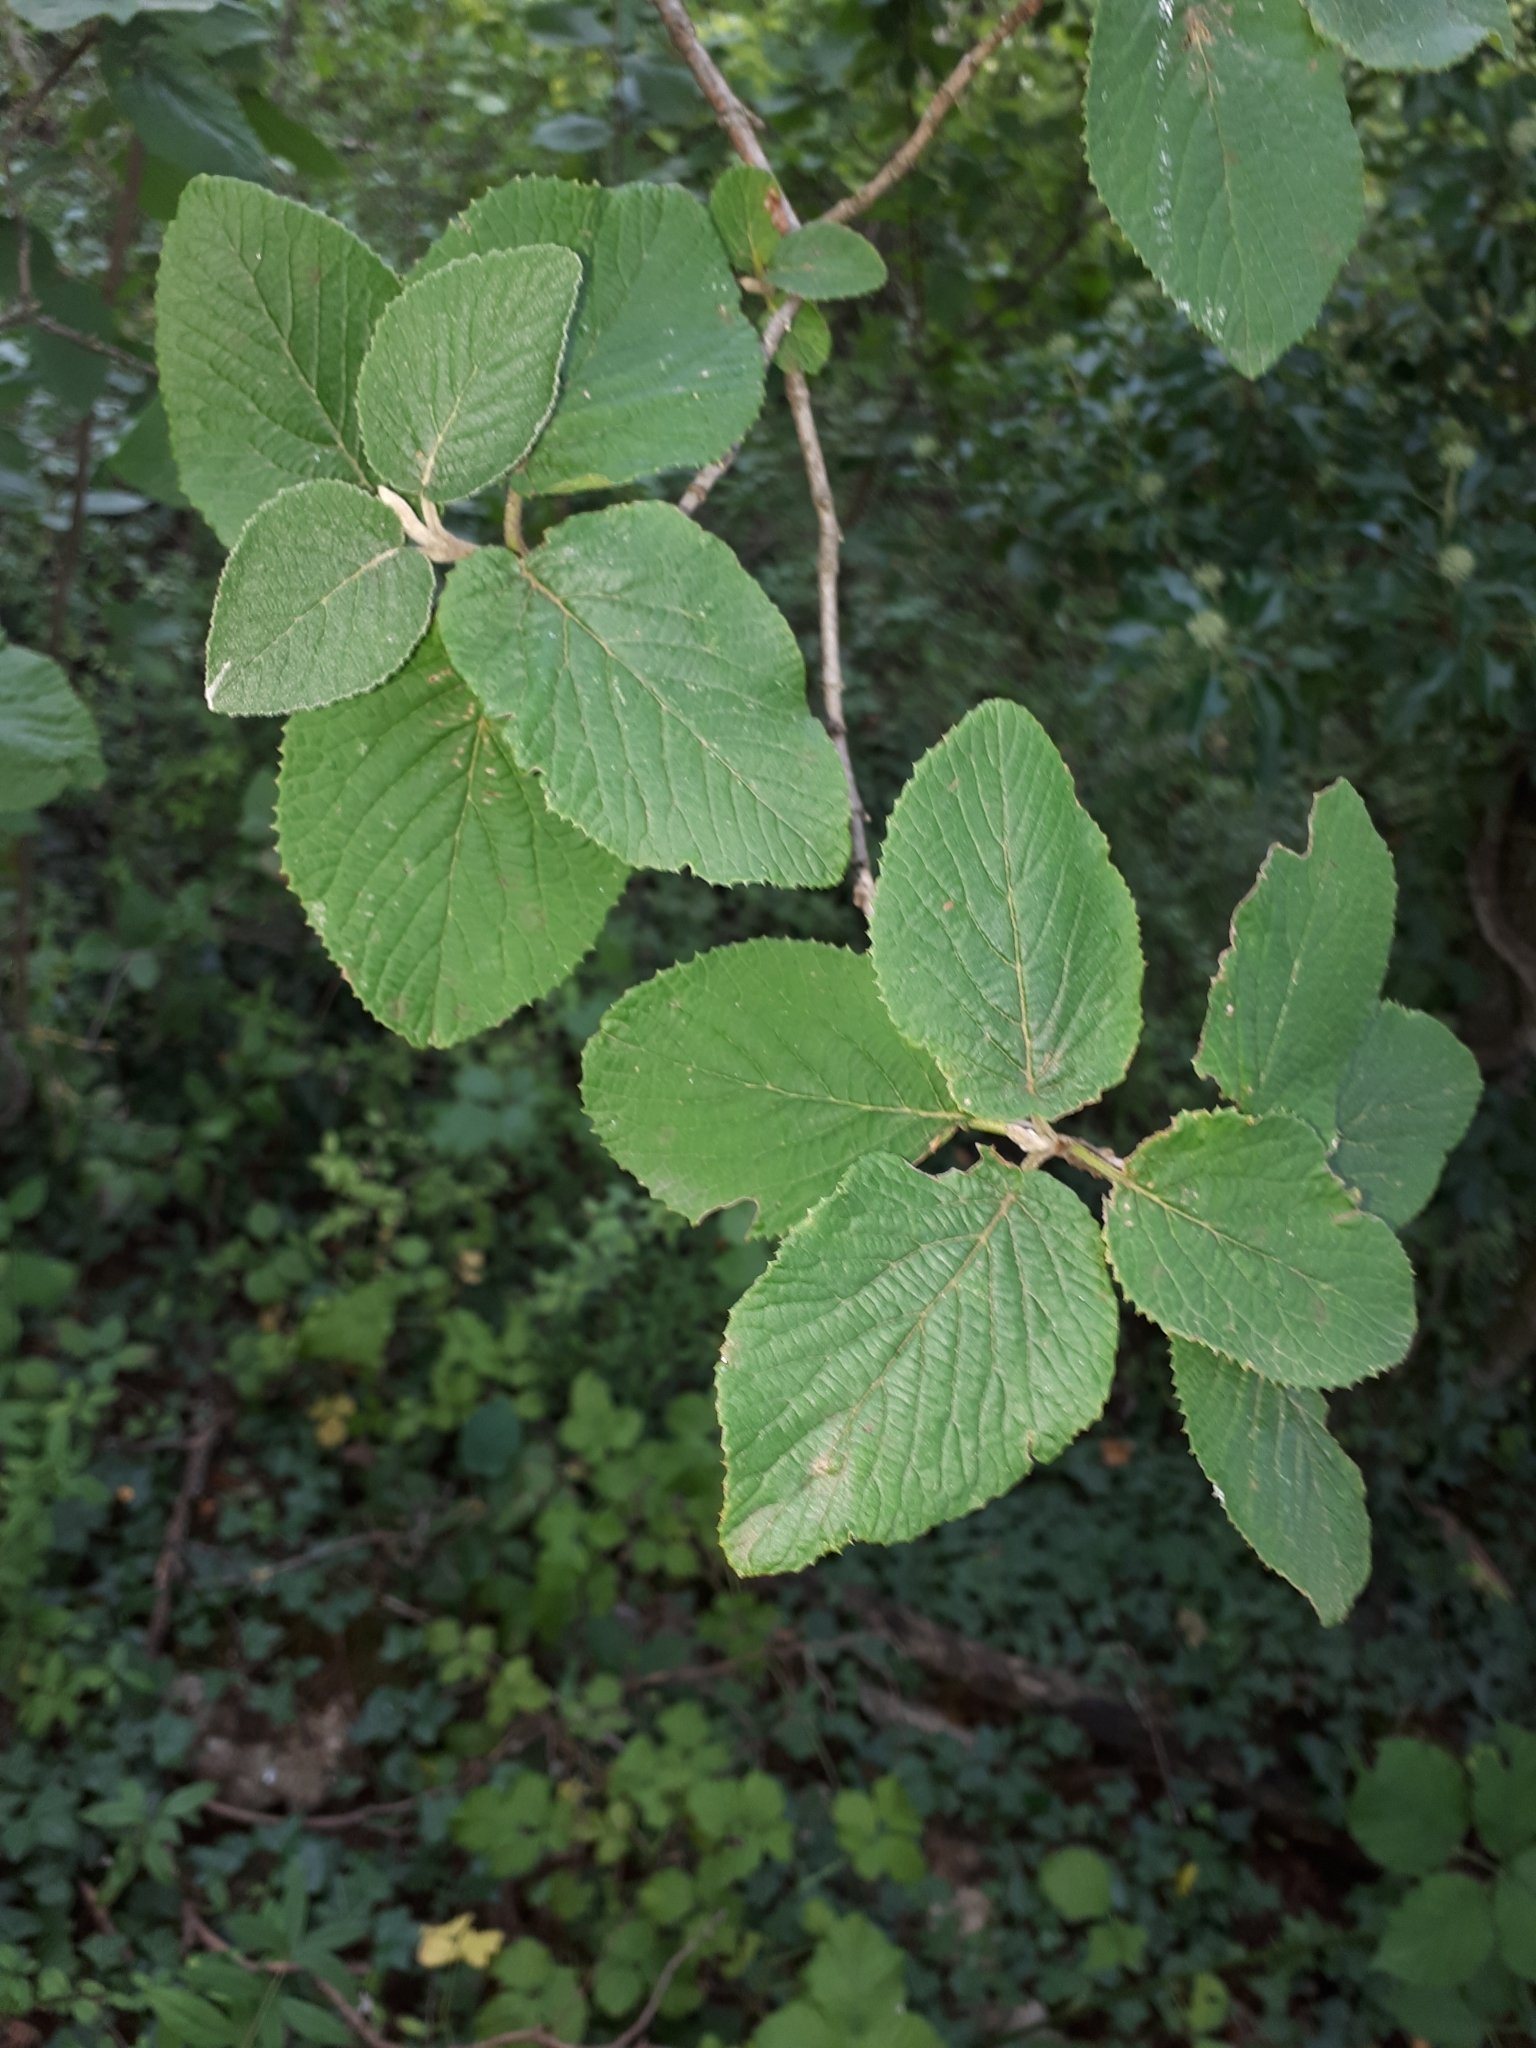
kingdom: Plantae
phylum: Tracheophyta
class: Magnoliopsida
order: Dipsacales
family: Viburnaceae
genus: Viburnum
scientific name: Viburnum lantana
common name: Wayfaring tree
